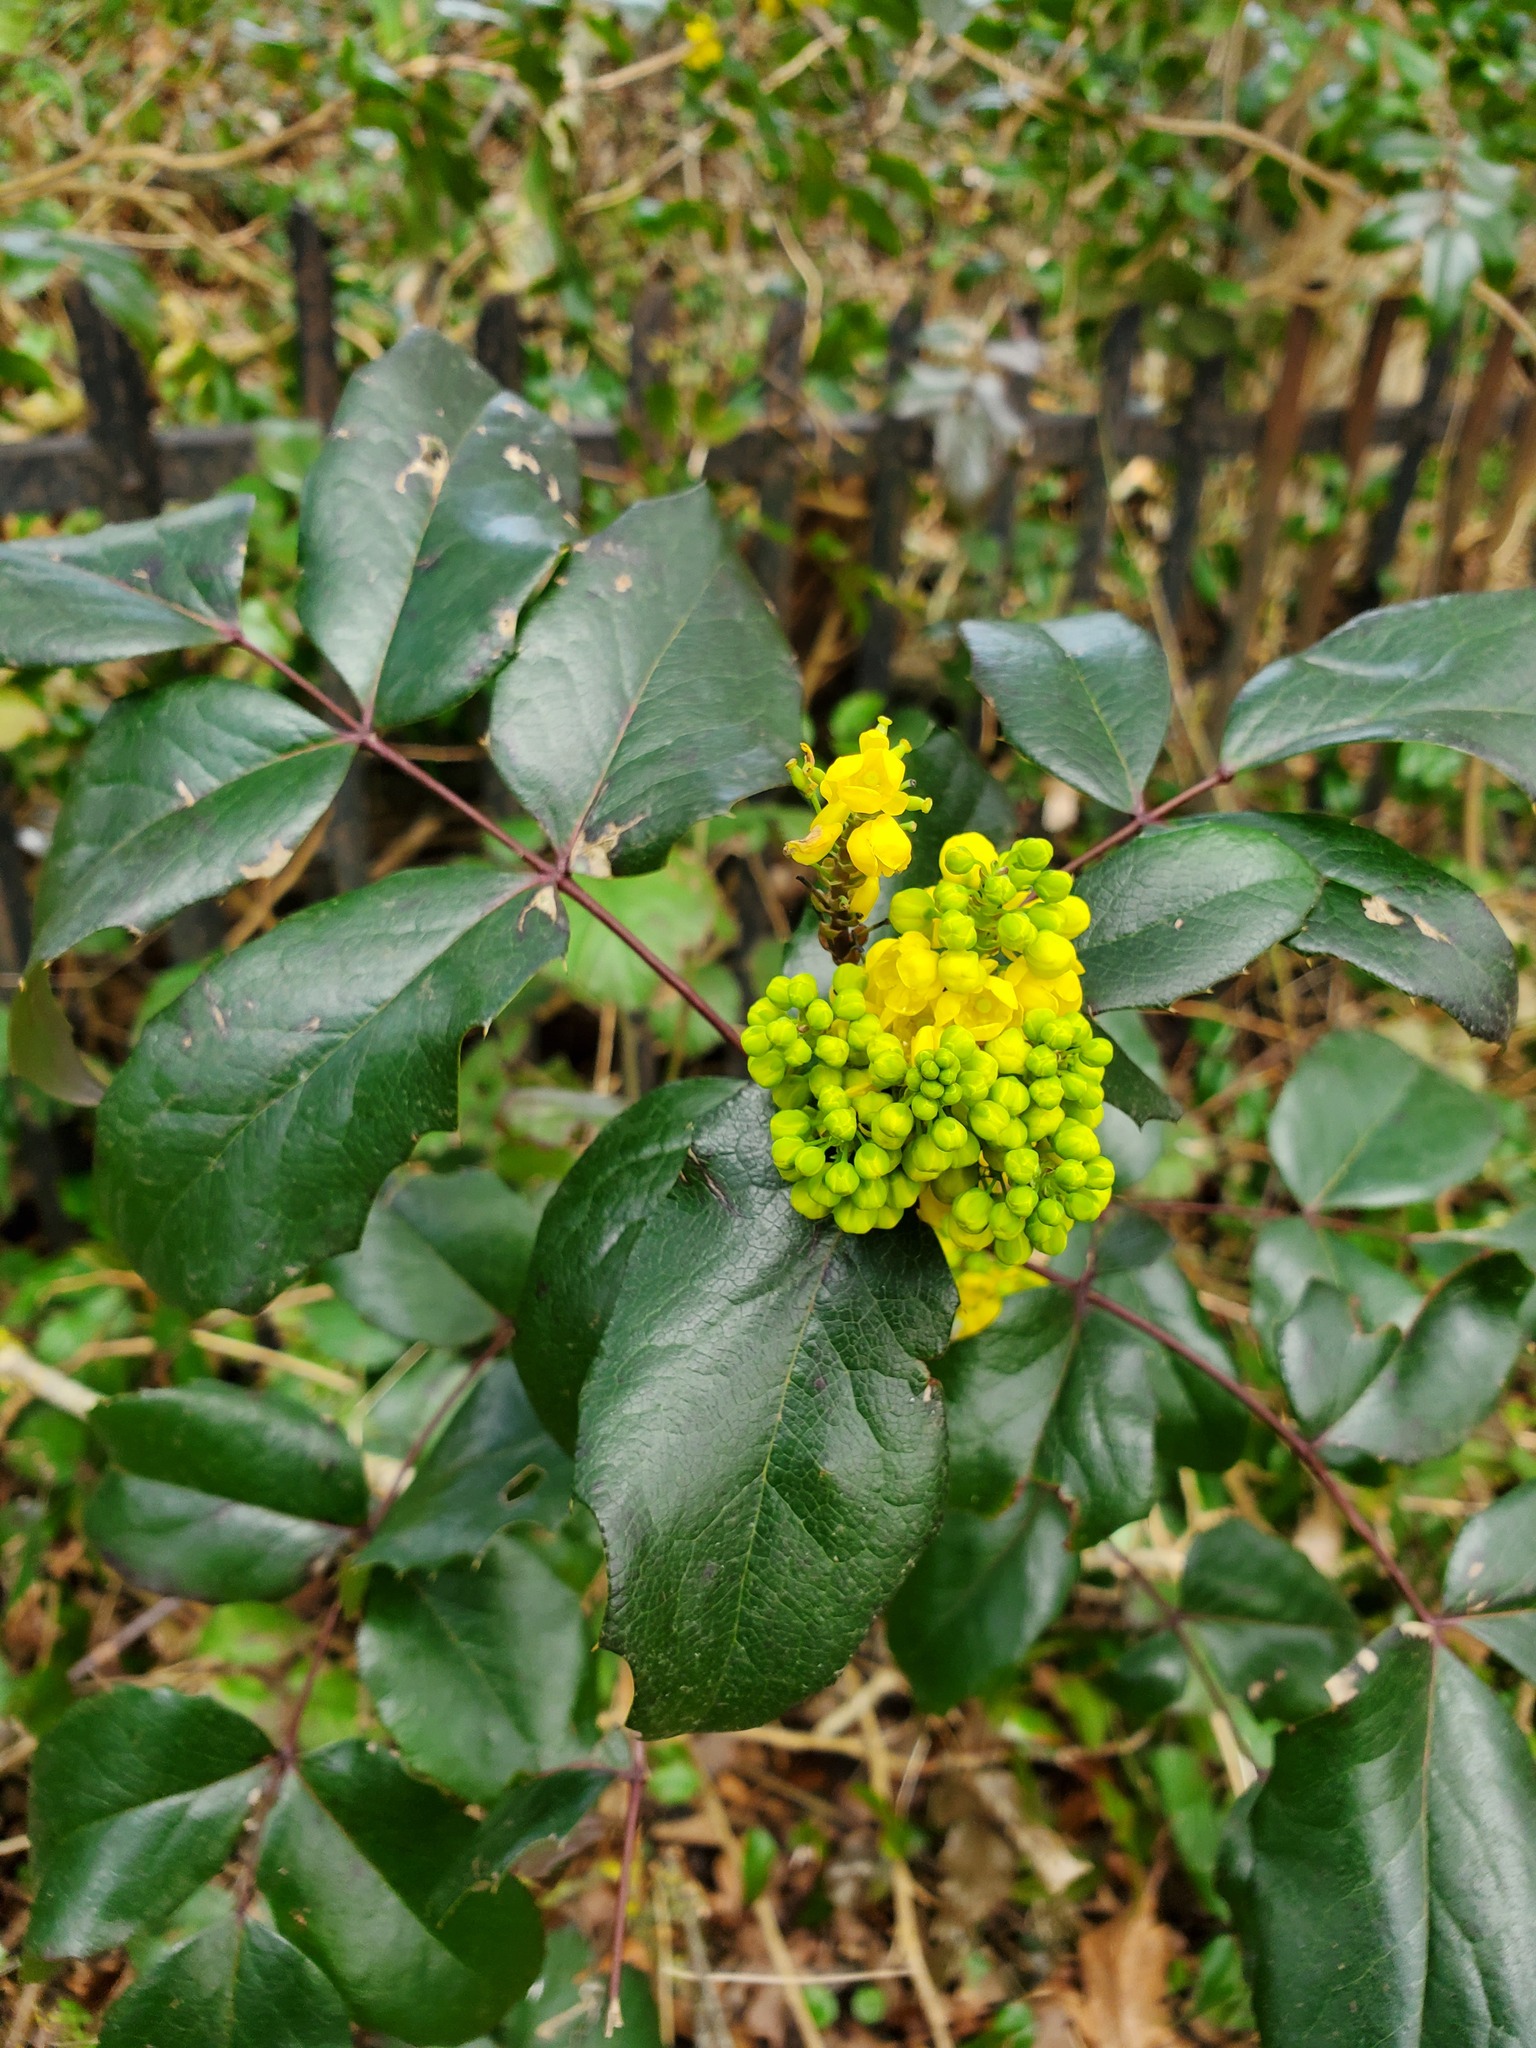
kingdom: Plantae
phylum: Tracheophyta
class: Magnoliopsida
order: Ranunculales
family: Berberidaceae
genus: Mahonia
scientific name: Mahonia aquifolium
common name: Oregon-grape
